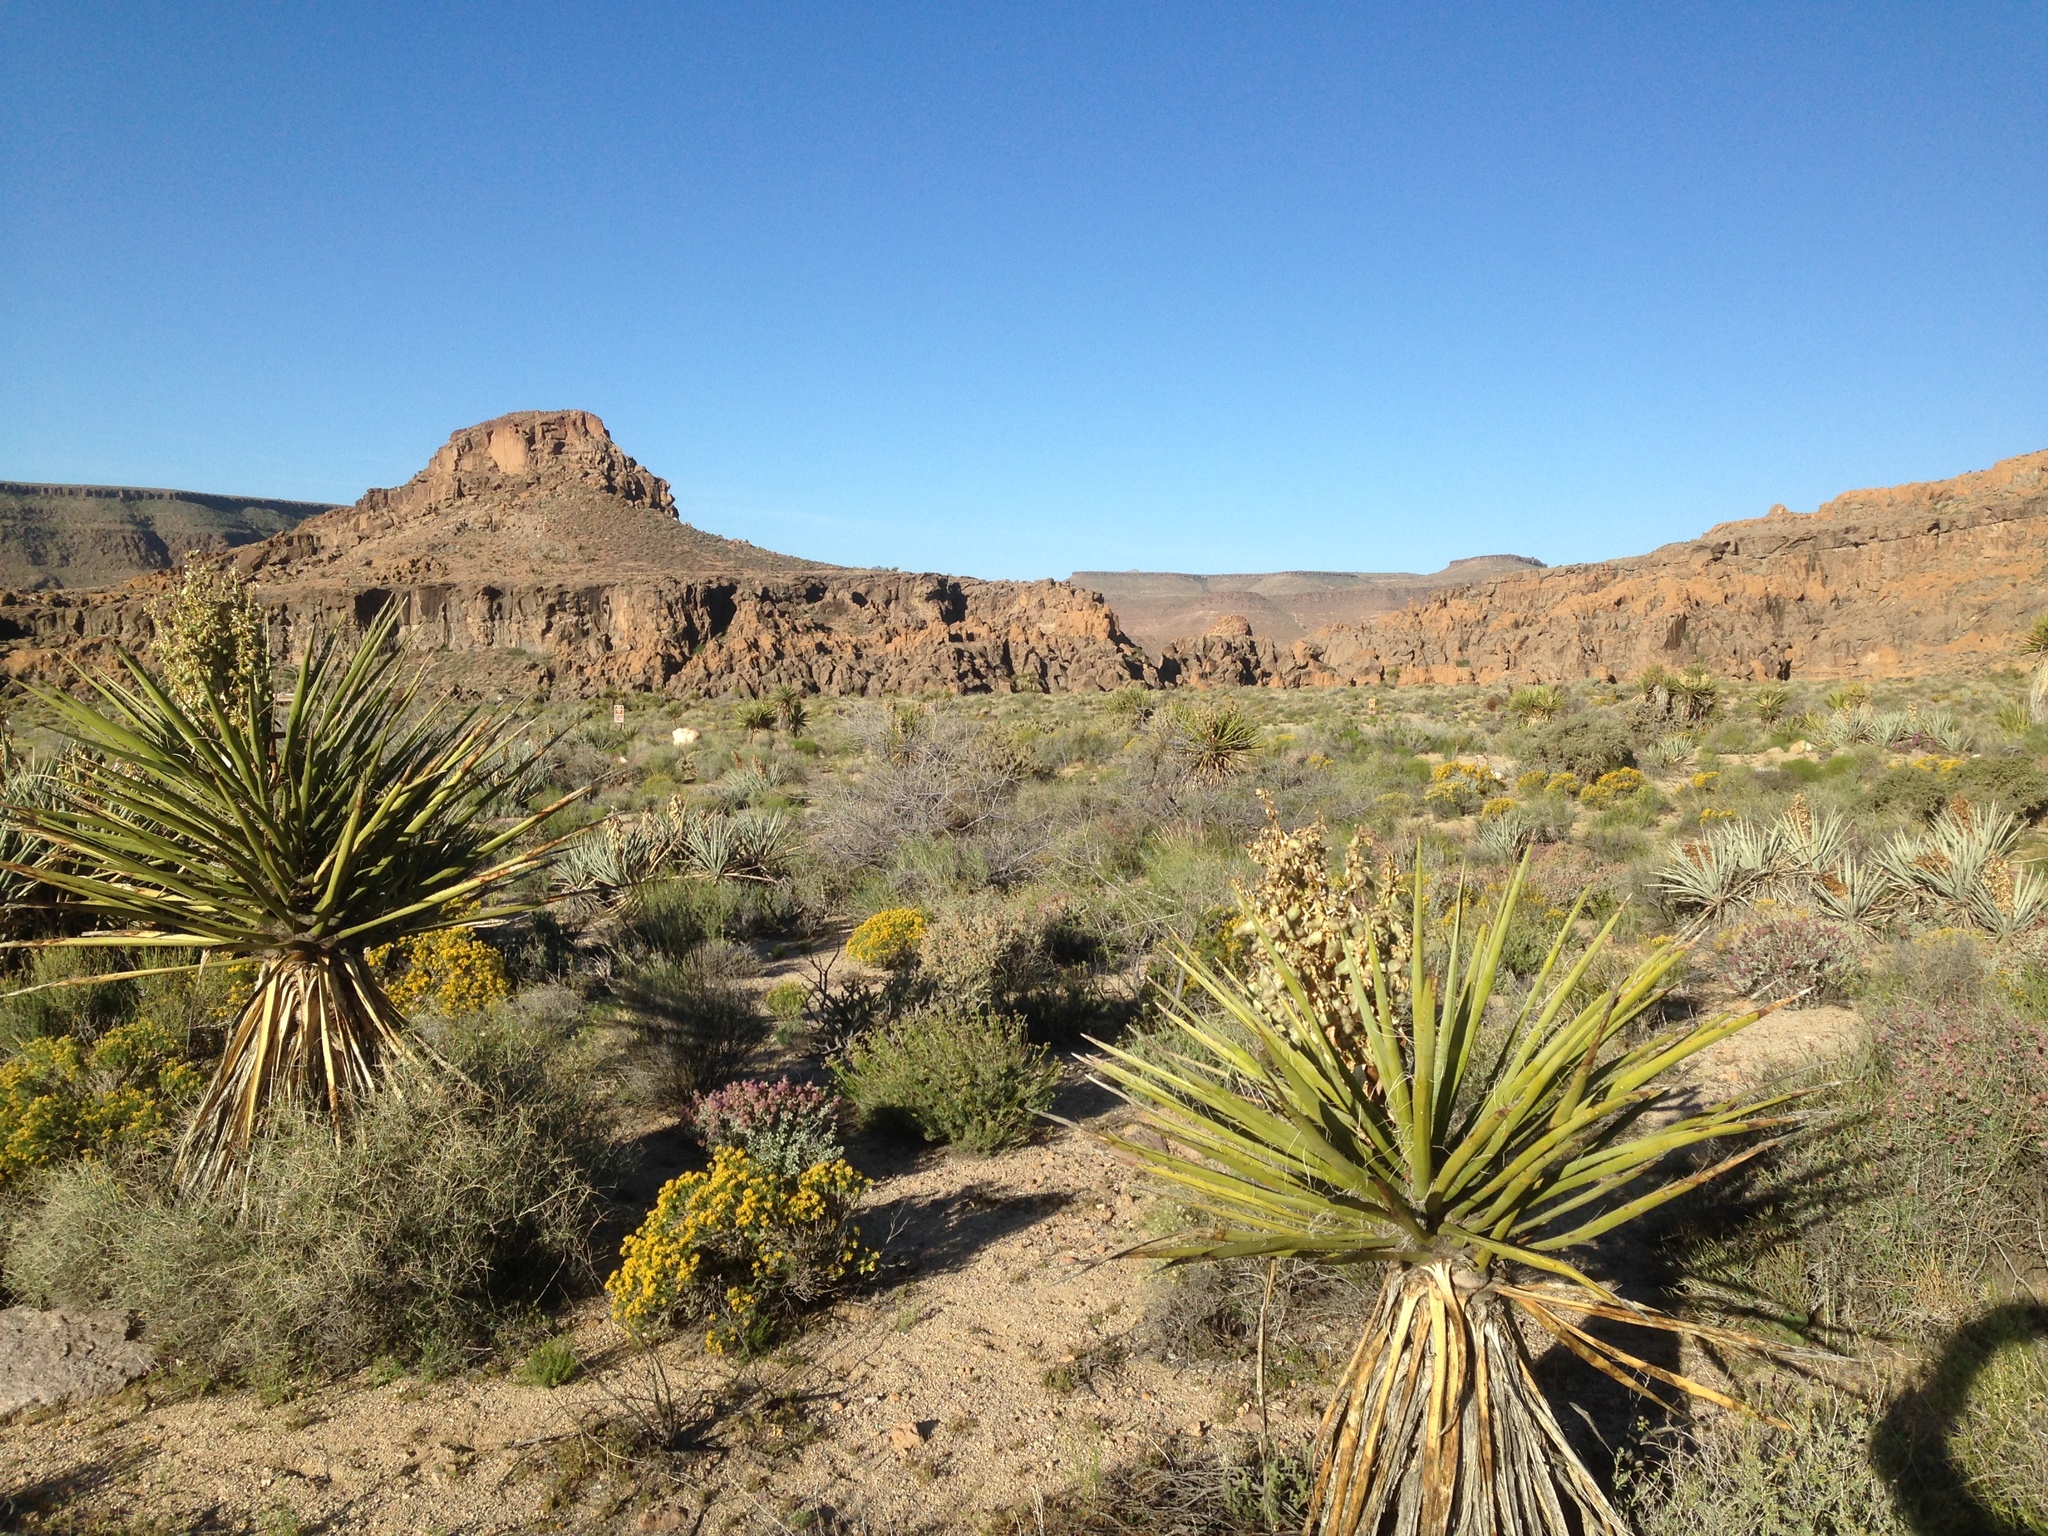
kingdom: Plantae
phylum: Tracheophyta
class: Liliopsida
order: Asparagales
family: Asparagaceae
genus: Yucca
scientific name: Yucca schidigera
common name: Mojave yucca
